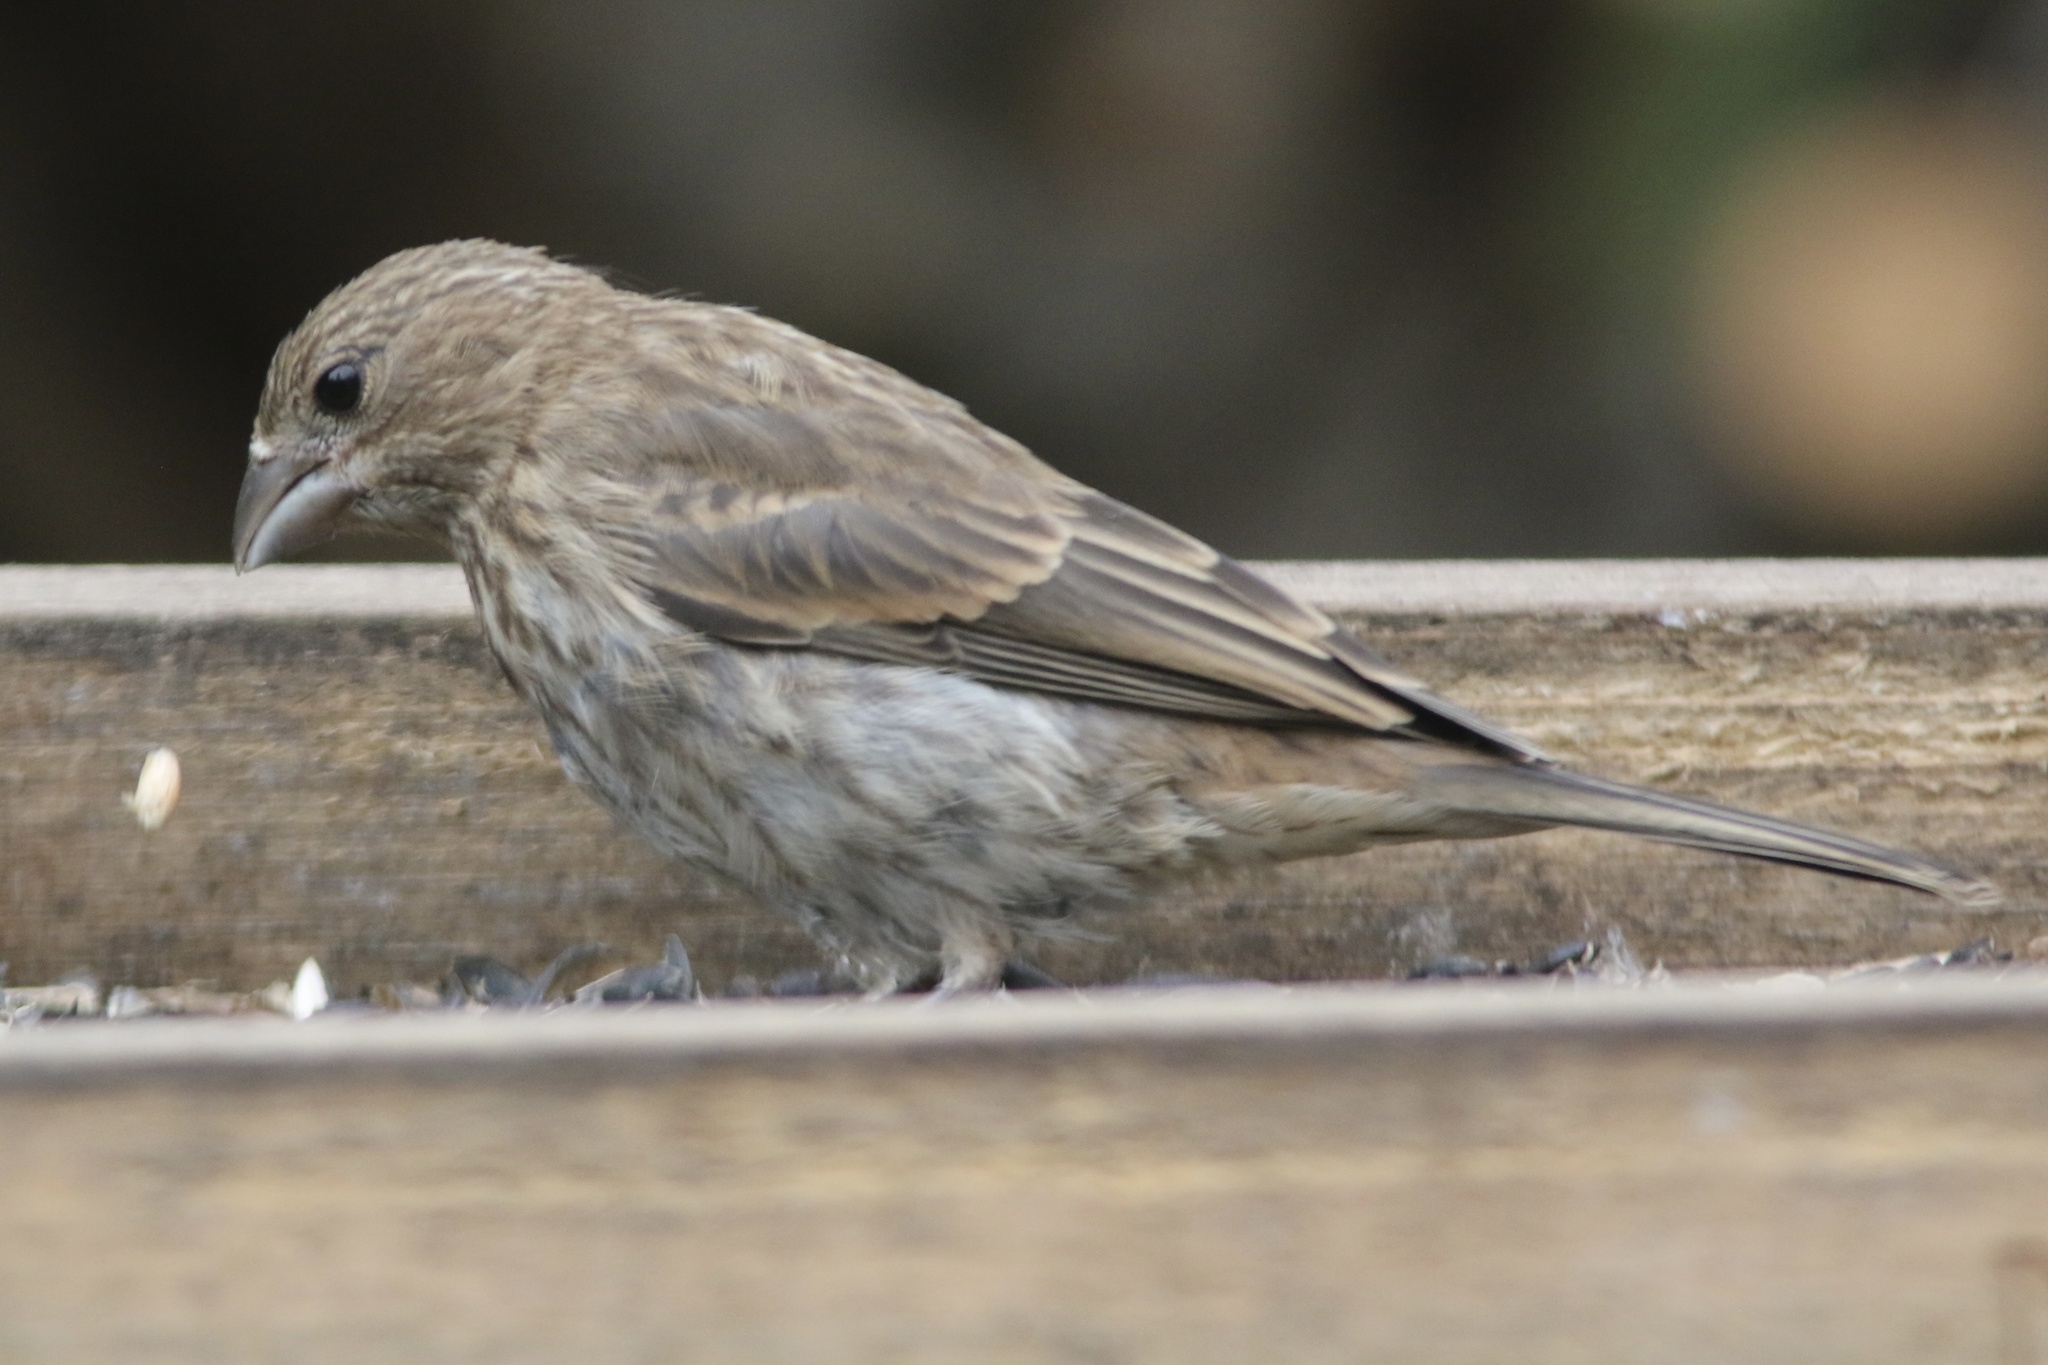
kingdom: Animalia
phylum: Chordata
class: Aves
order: Passeriformes
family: Fringillidae
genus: Haemorhous
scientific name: Haemorhous mexicanus
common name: House finch
